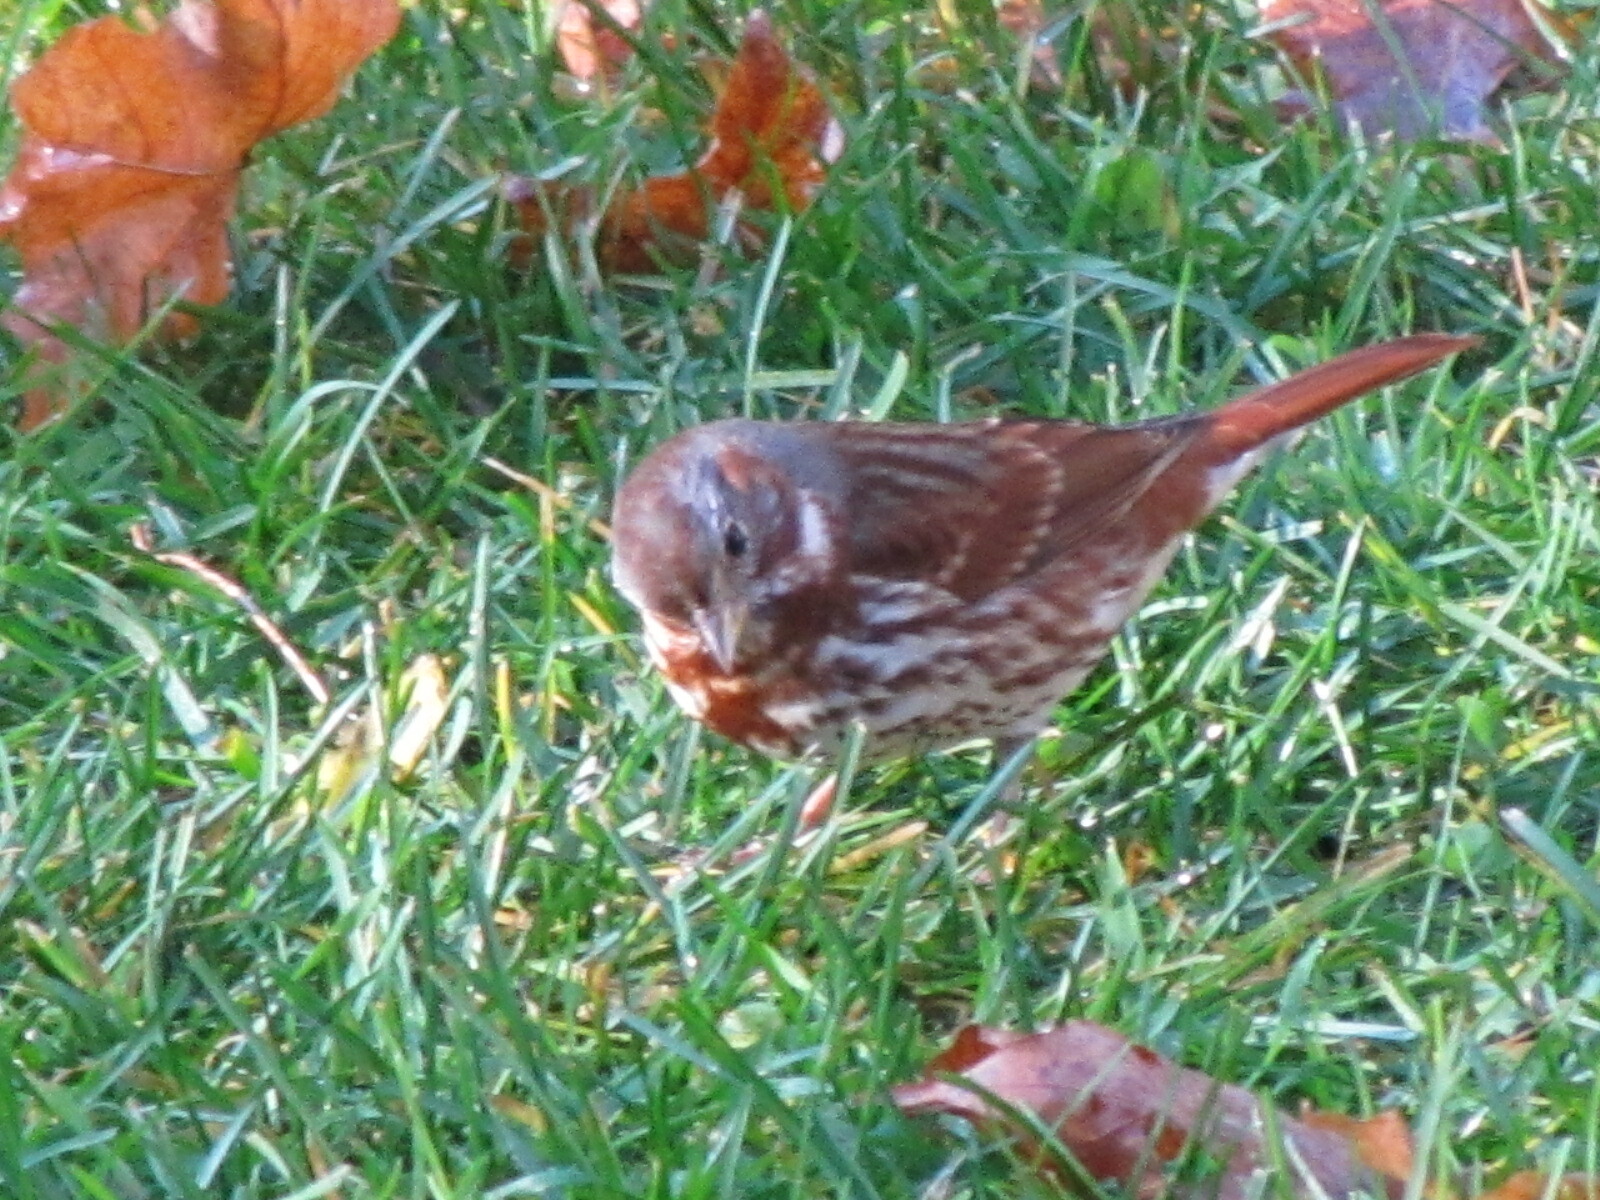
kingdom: Animalia
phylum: Chordata
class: Aves
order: Passeriformes
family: Passerellidae
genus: Passerella
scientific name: Passerella iliaca
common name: Fox sparrow
